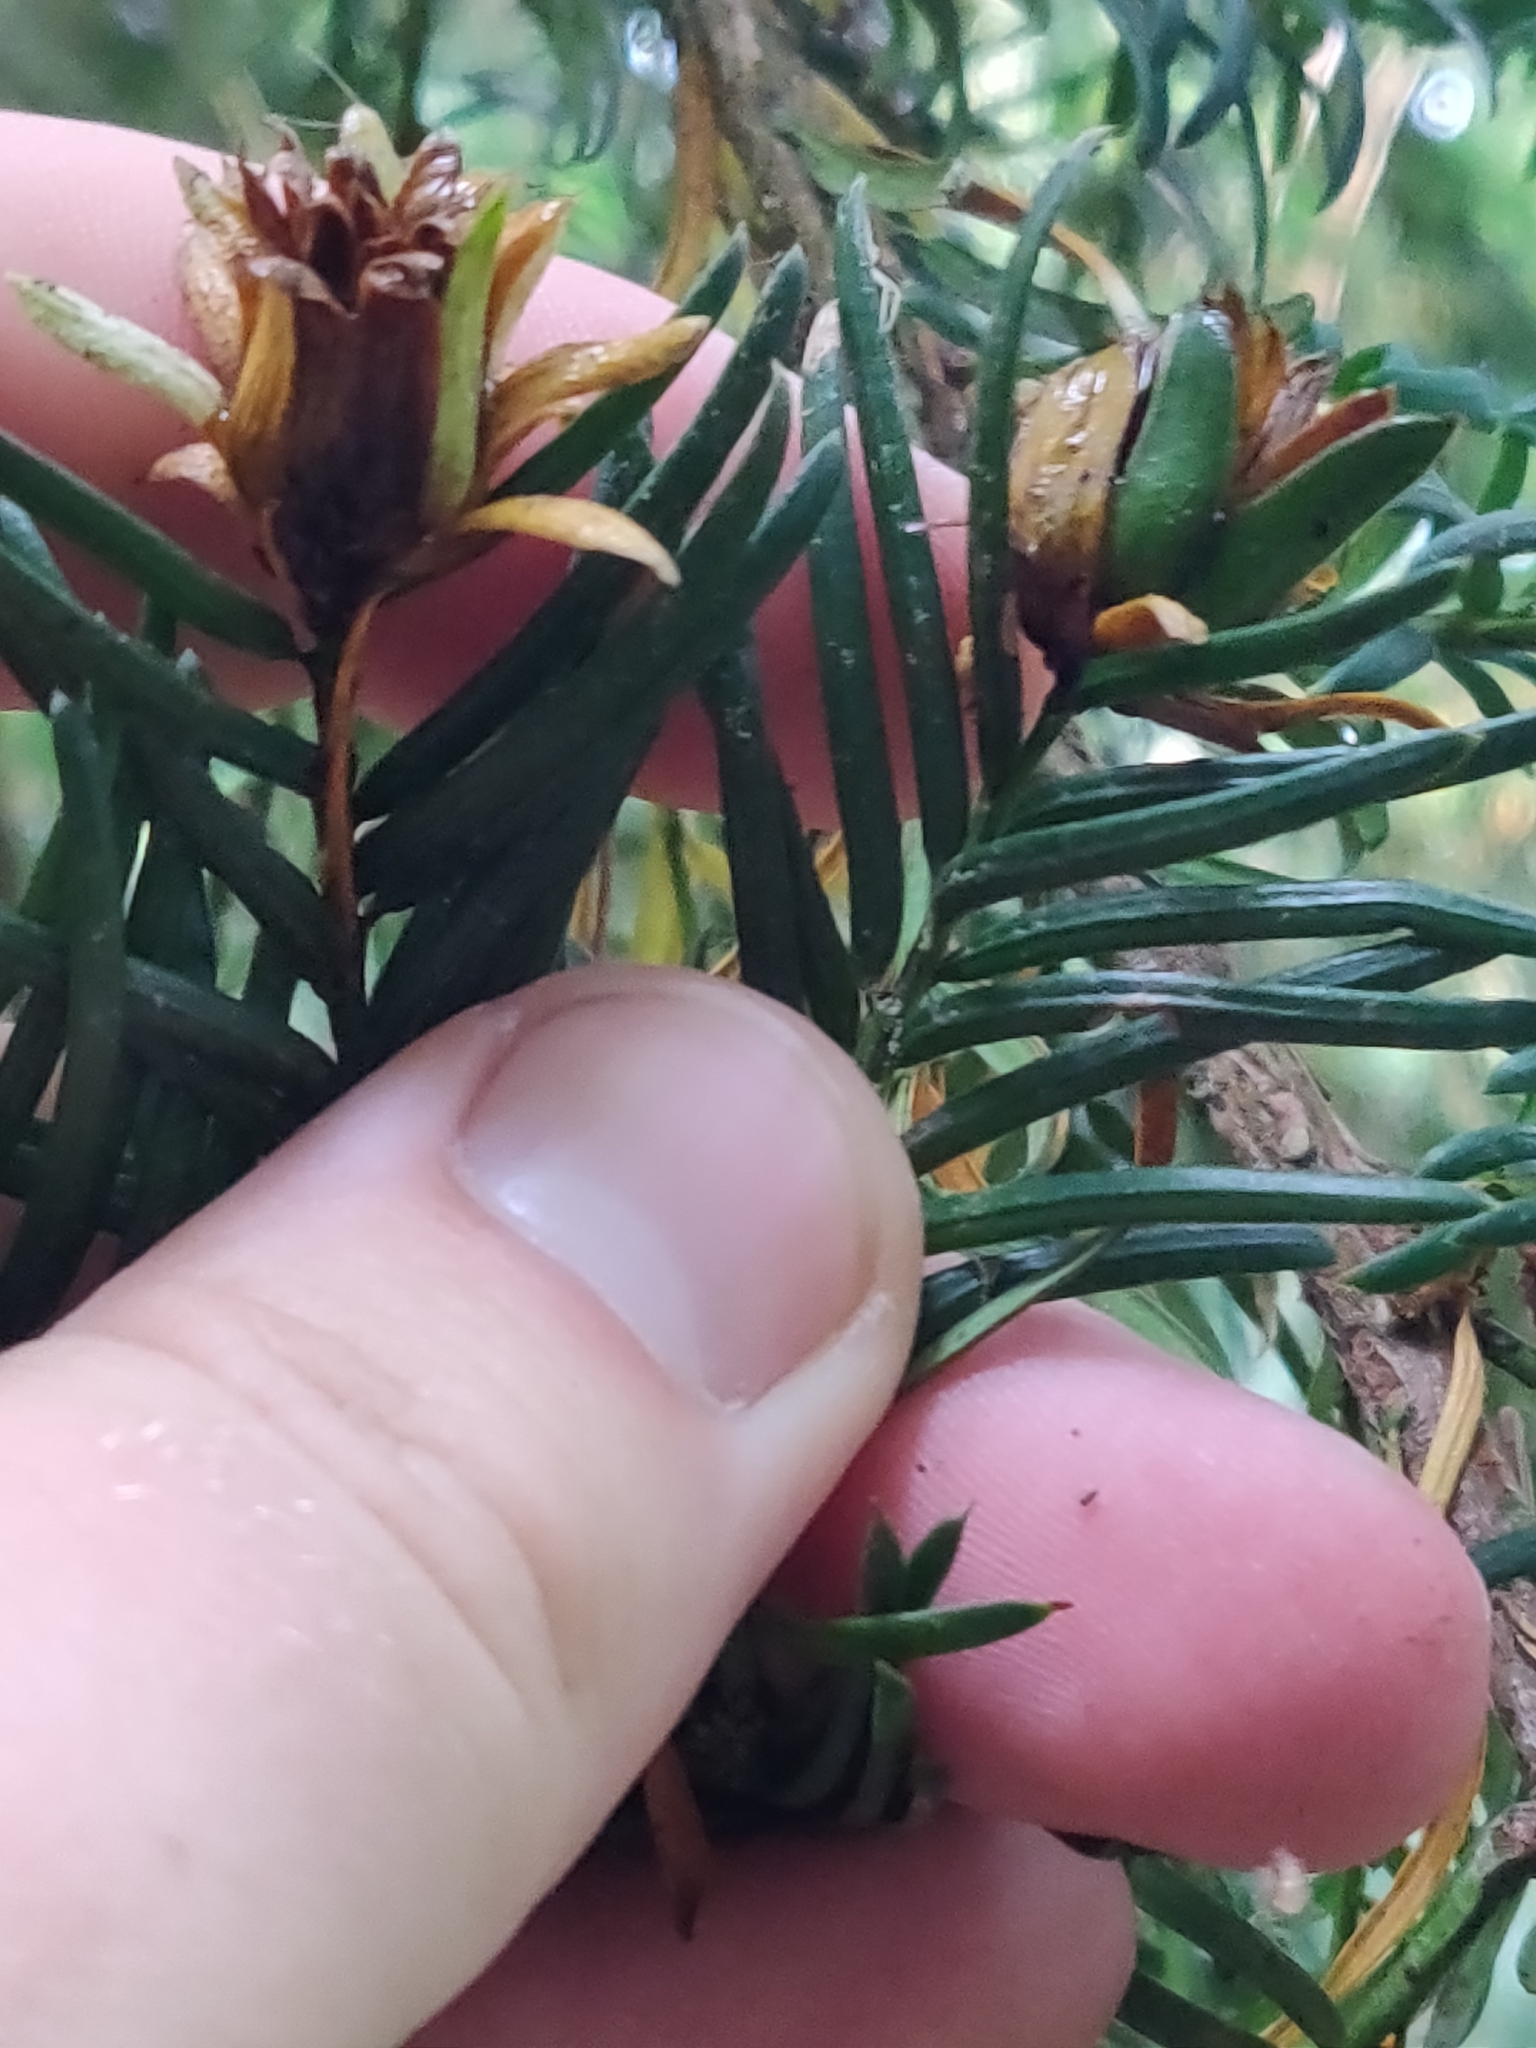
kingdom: Animalia
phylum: Arthropoda
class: Insecta
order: Diptera
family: Cecidomyiidae
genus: Taxomyia
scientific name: Taxomyia taxi
